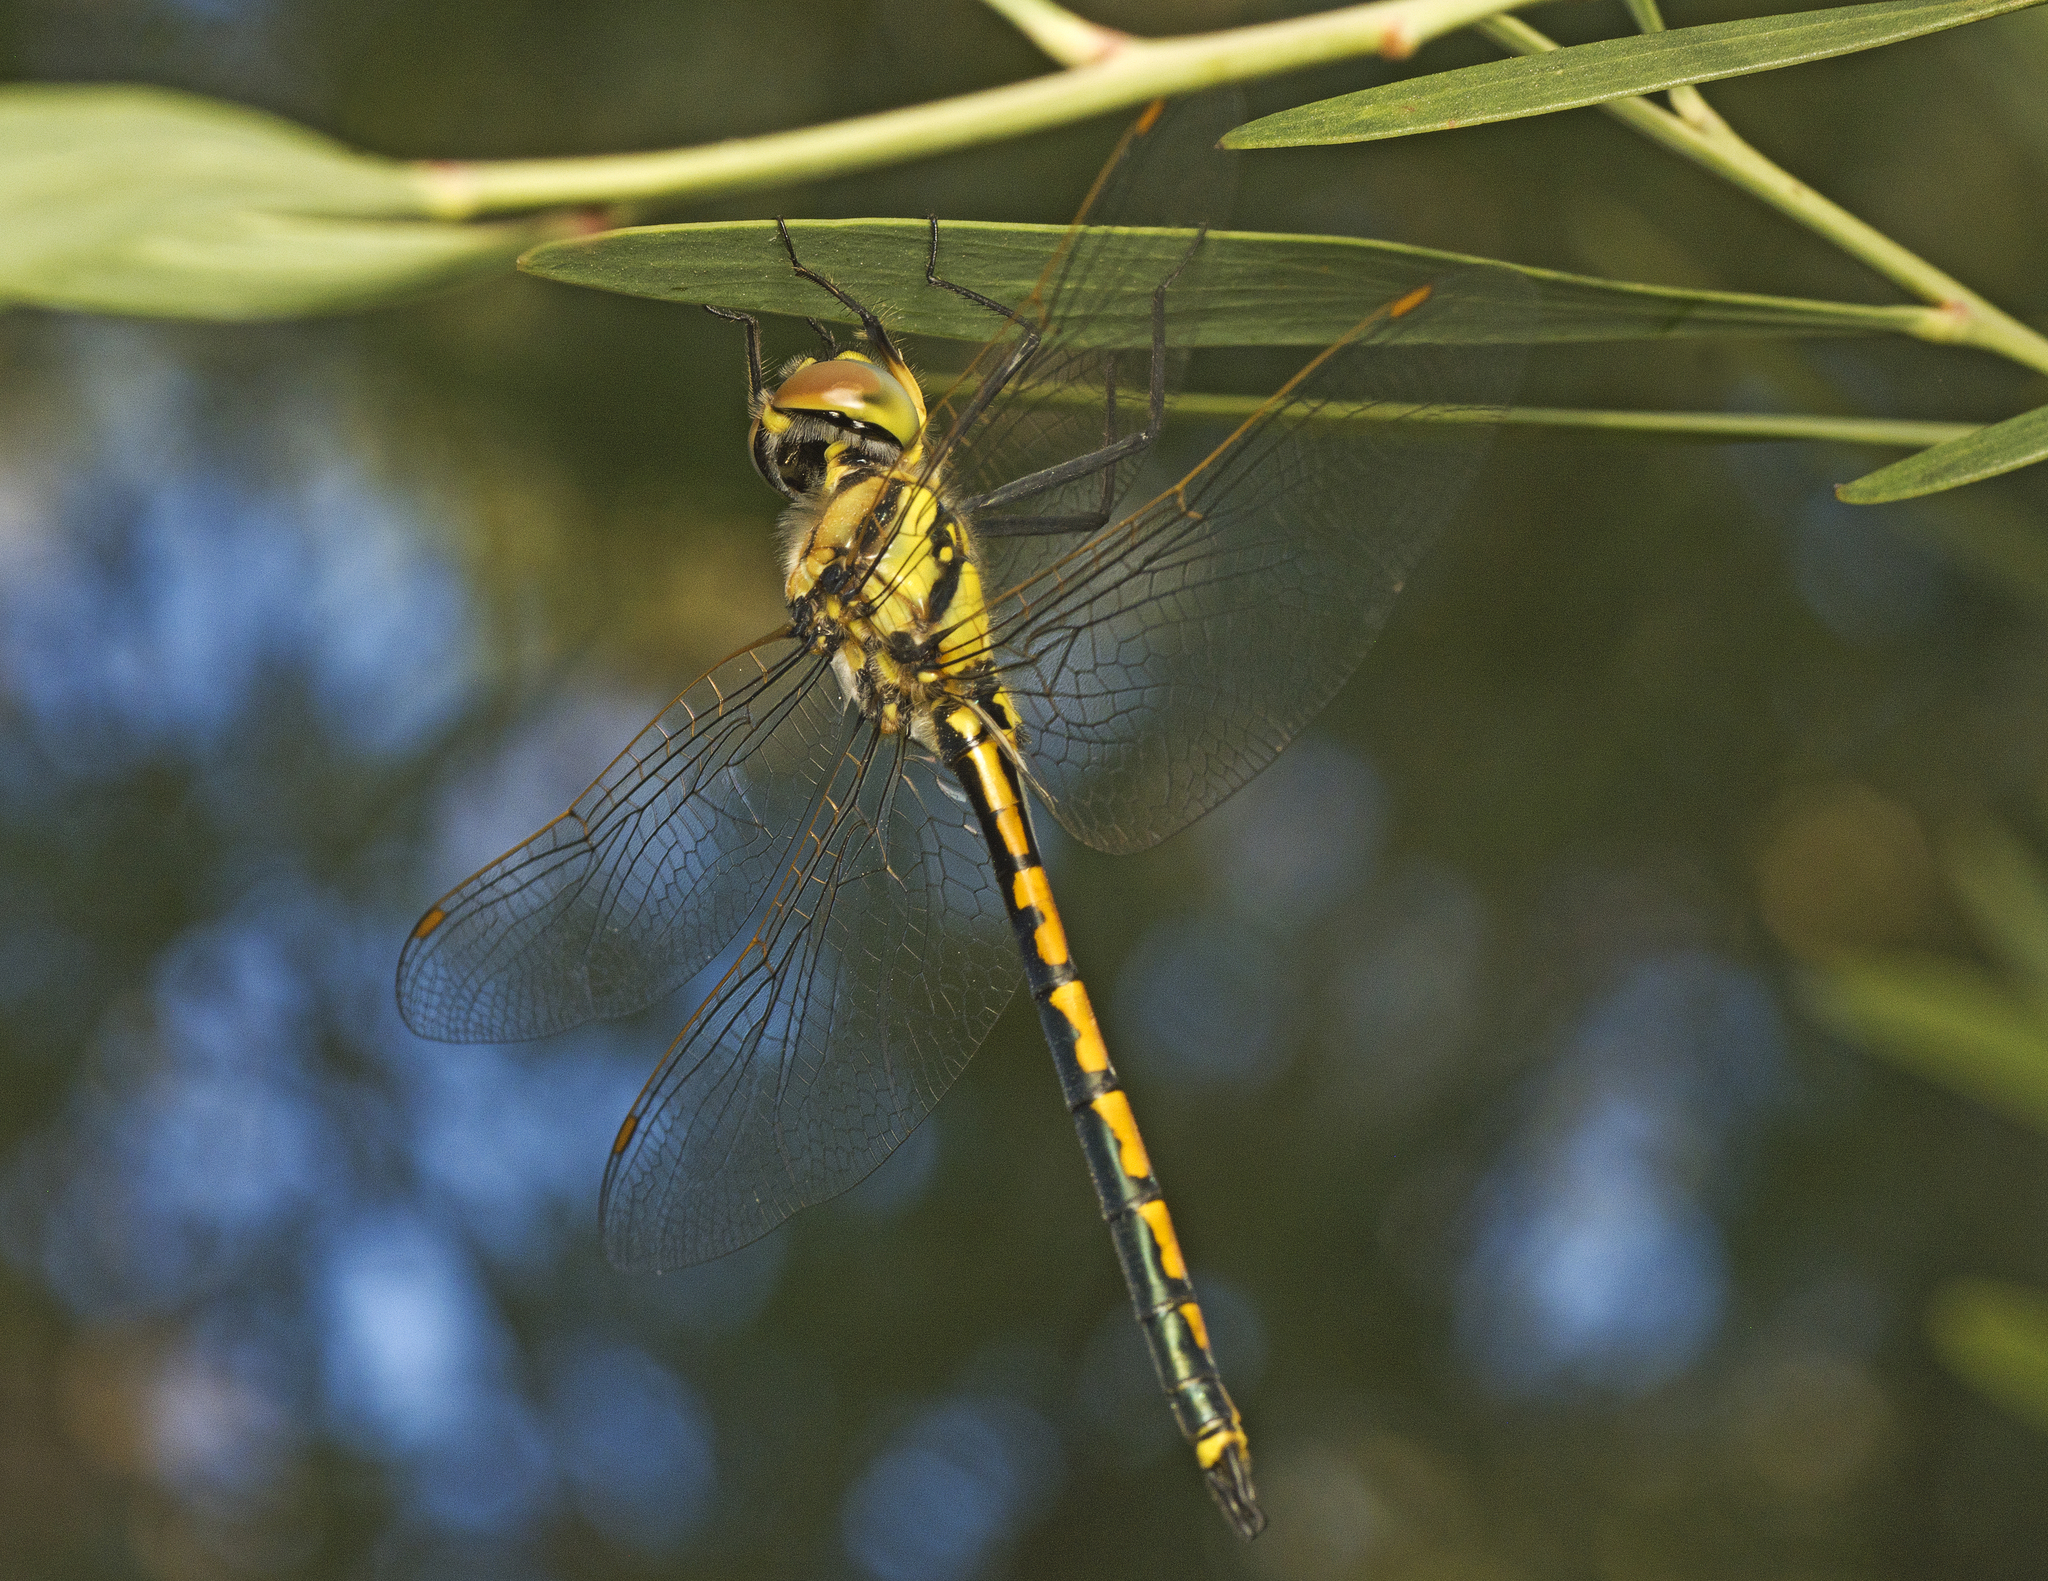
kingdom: Animalia
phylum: Arthropoda
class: Insecta
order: Odonata
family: Corduliidae
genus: Hemicordulia
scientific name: Hemicordulia tau
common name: Tau emerald
